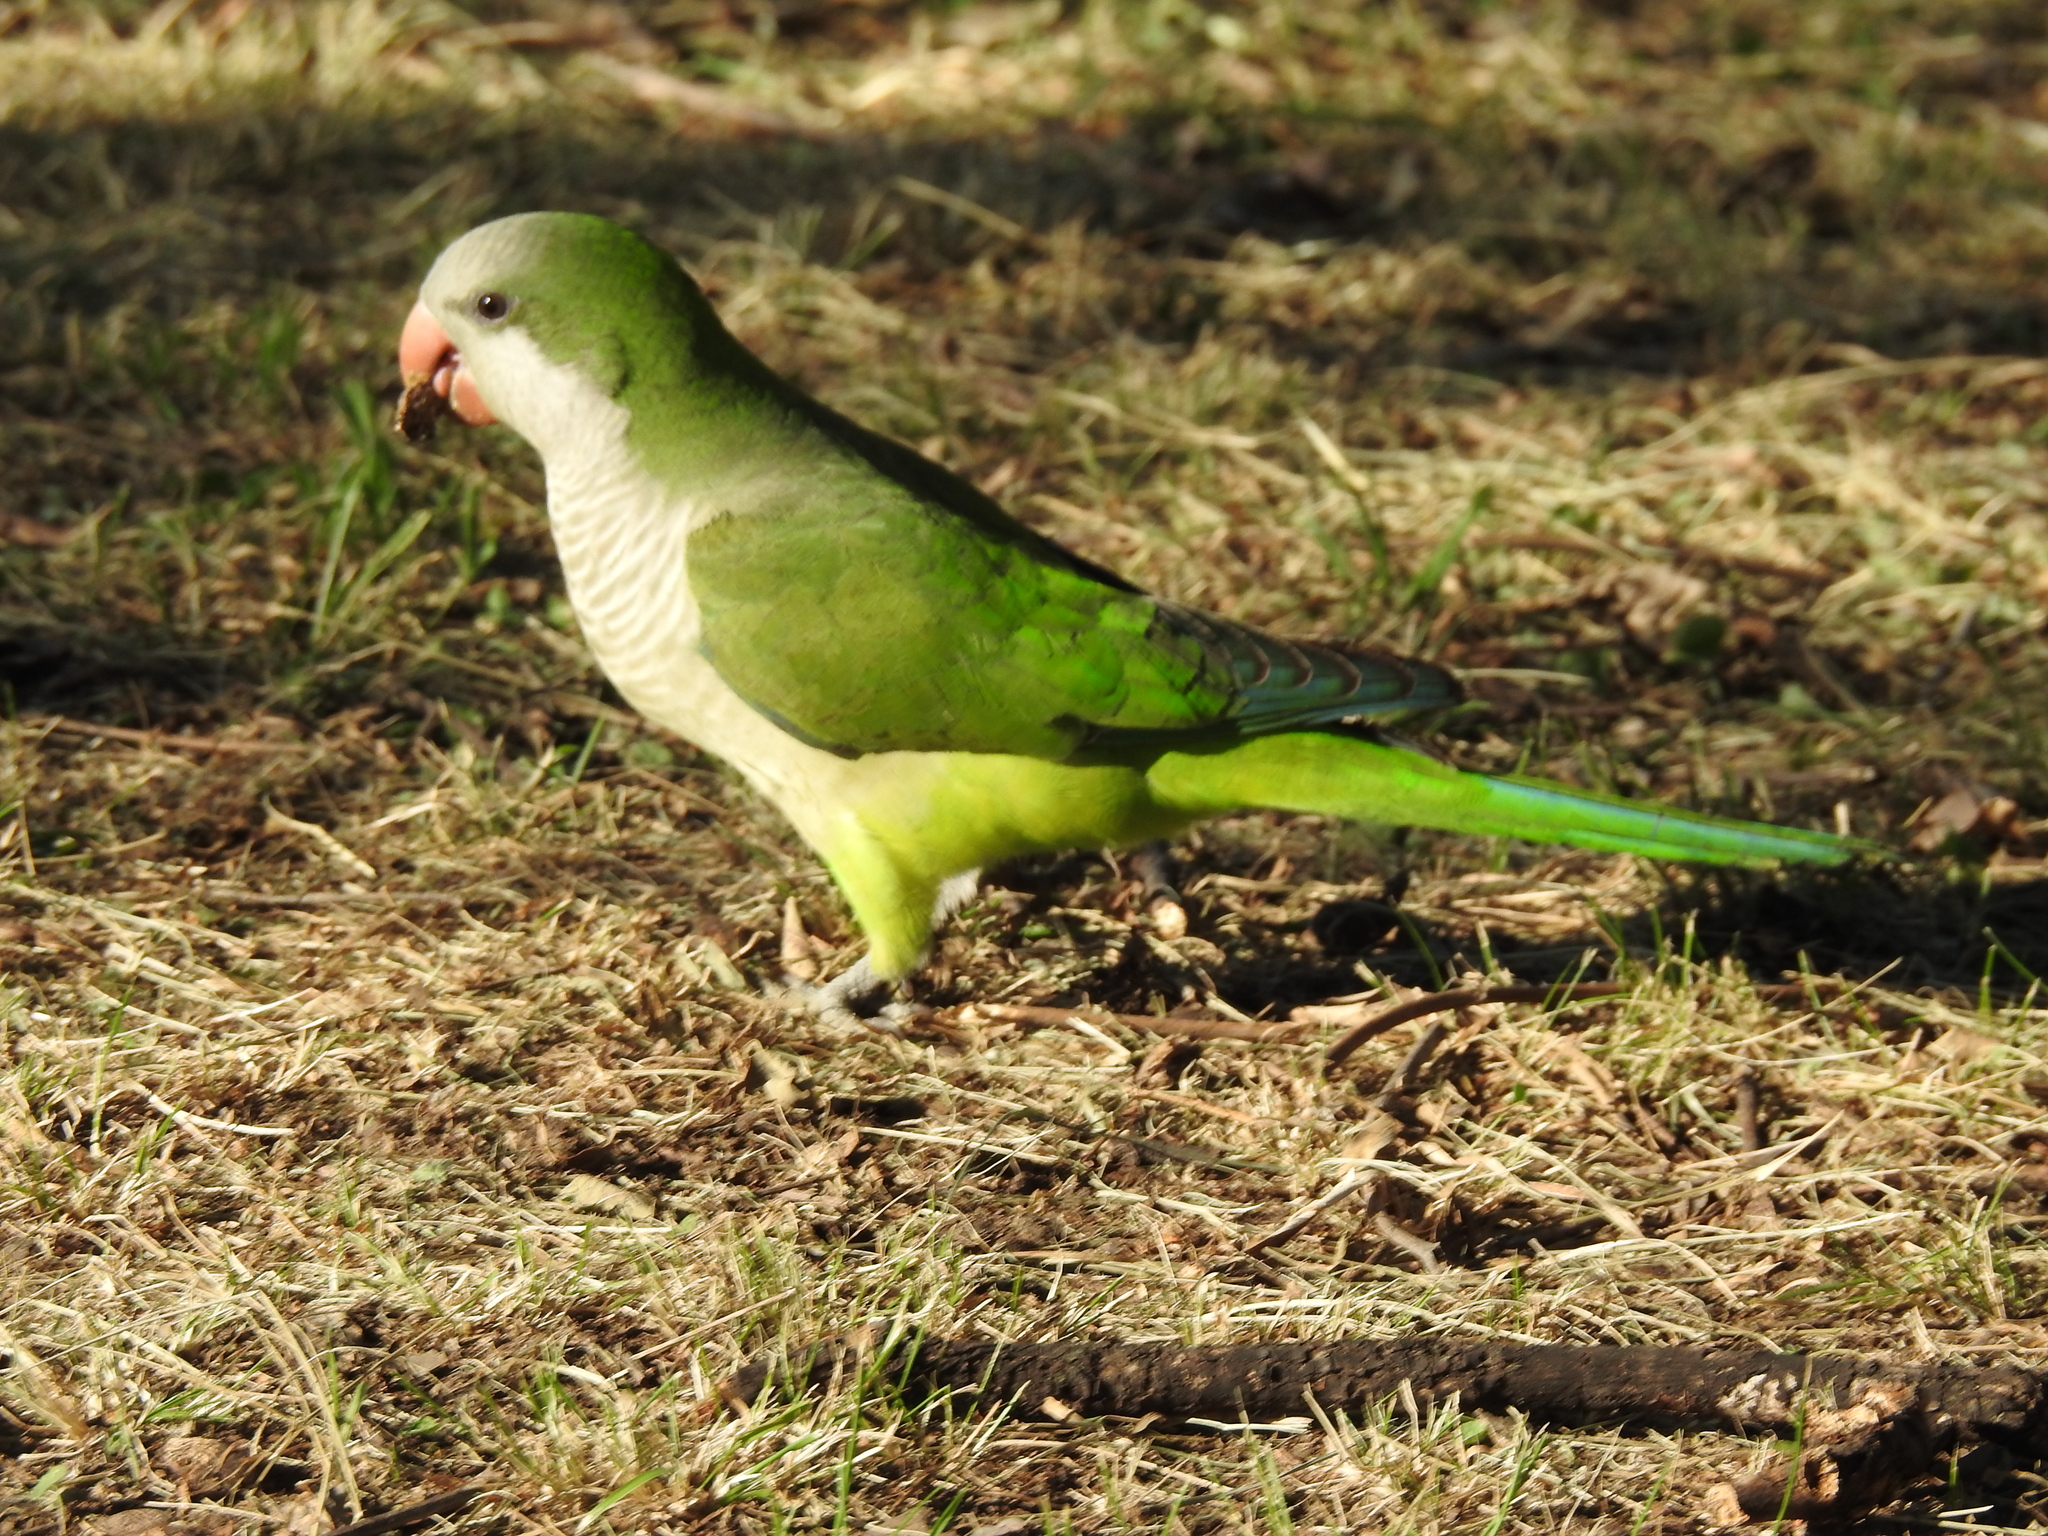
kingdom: Animalia
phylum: Chordata
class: Aves
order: Psittaciformes
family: Psittacidae
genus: Myiopsitta
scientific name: Myiopsitta monachus
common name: Monk parakeet
